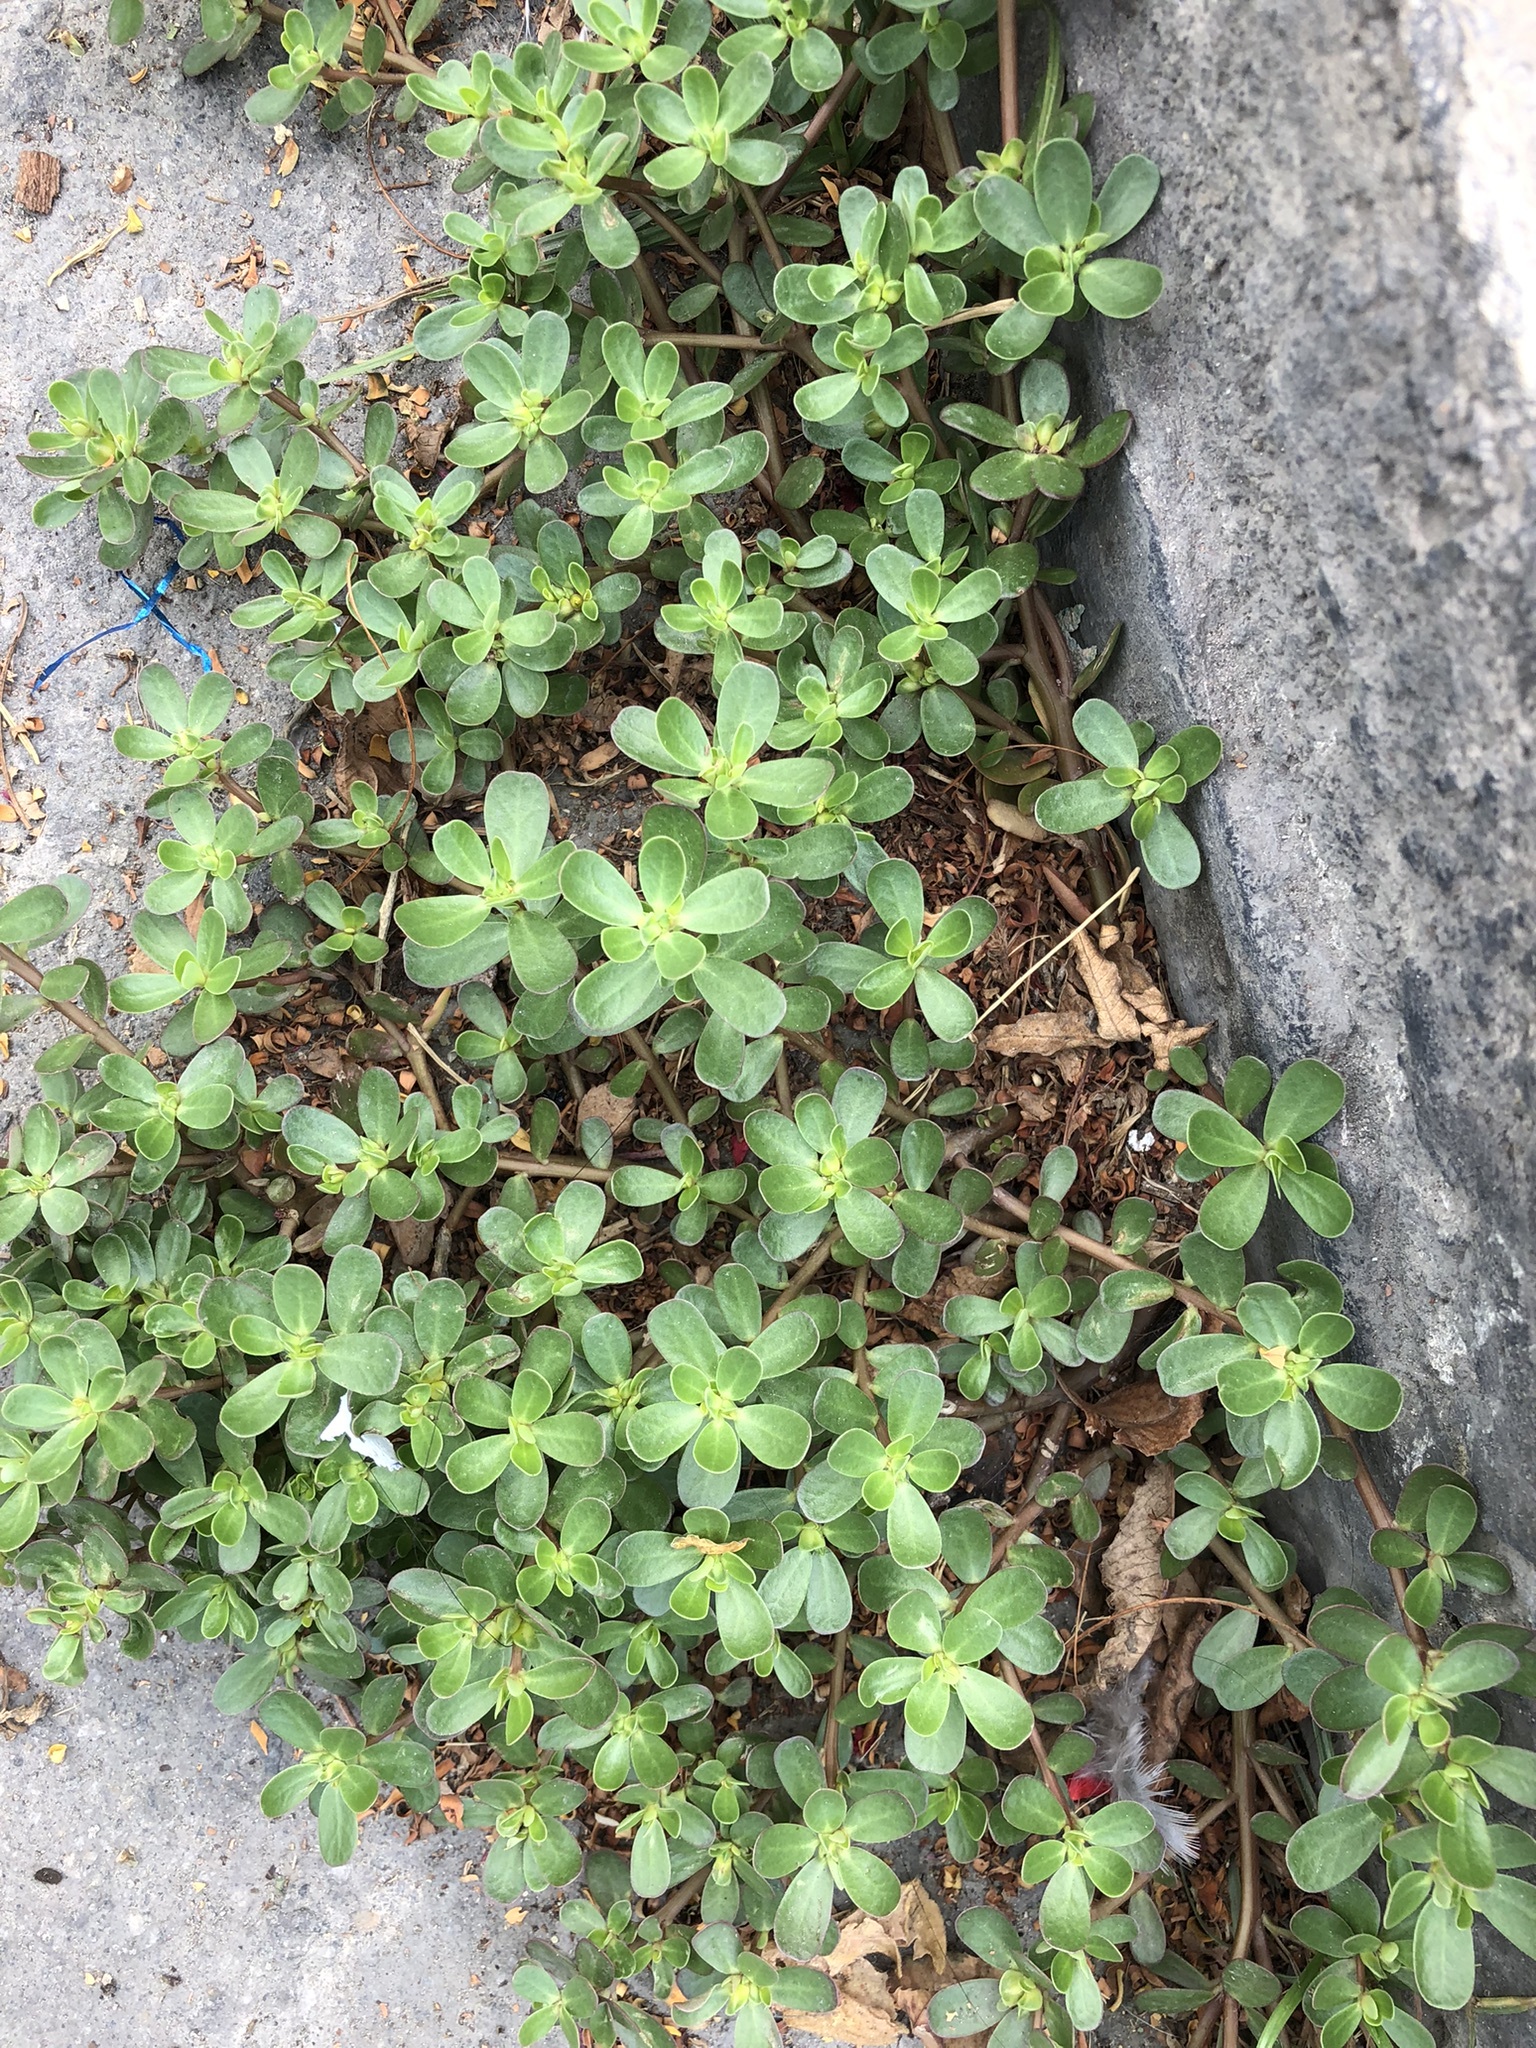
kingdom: Plantae
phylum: Tracheophyta
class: Magnoliopsida
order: Caryophyllales
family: Portulacaceae
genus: Portulaca
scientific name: Portulaca oleracea
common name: Common purslane
